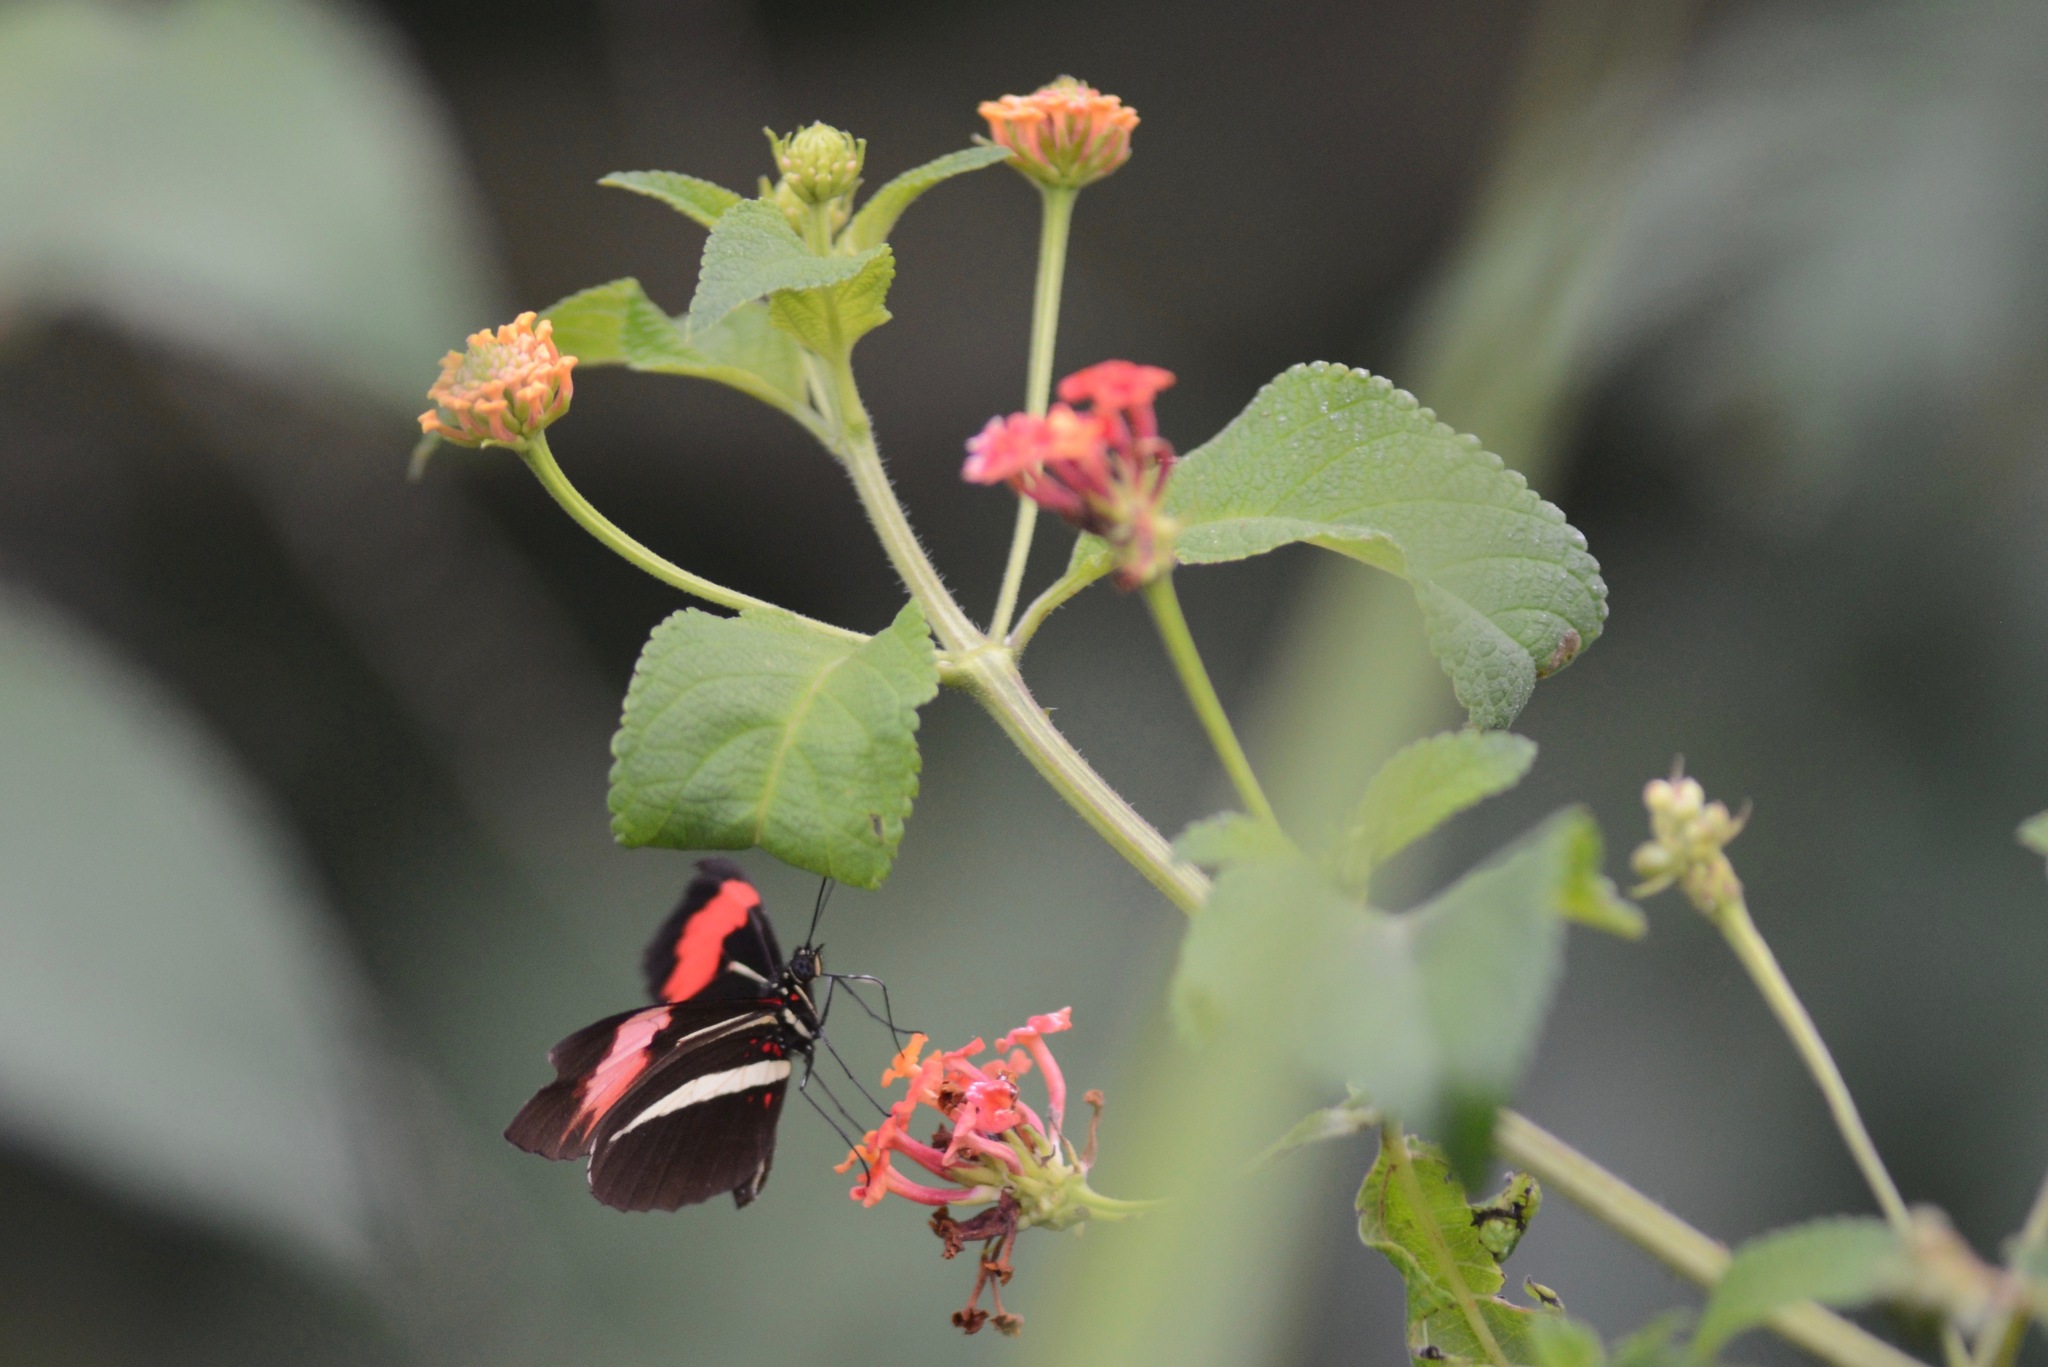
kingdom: Animalia
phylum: Arthropoda
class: Insecta
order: Lepidoptera
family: Nymphalidae
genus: Heliconius
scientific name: Heliconius erato
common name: Common patch longwing
